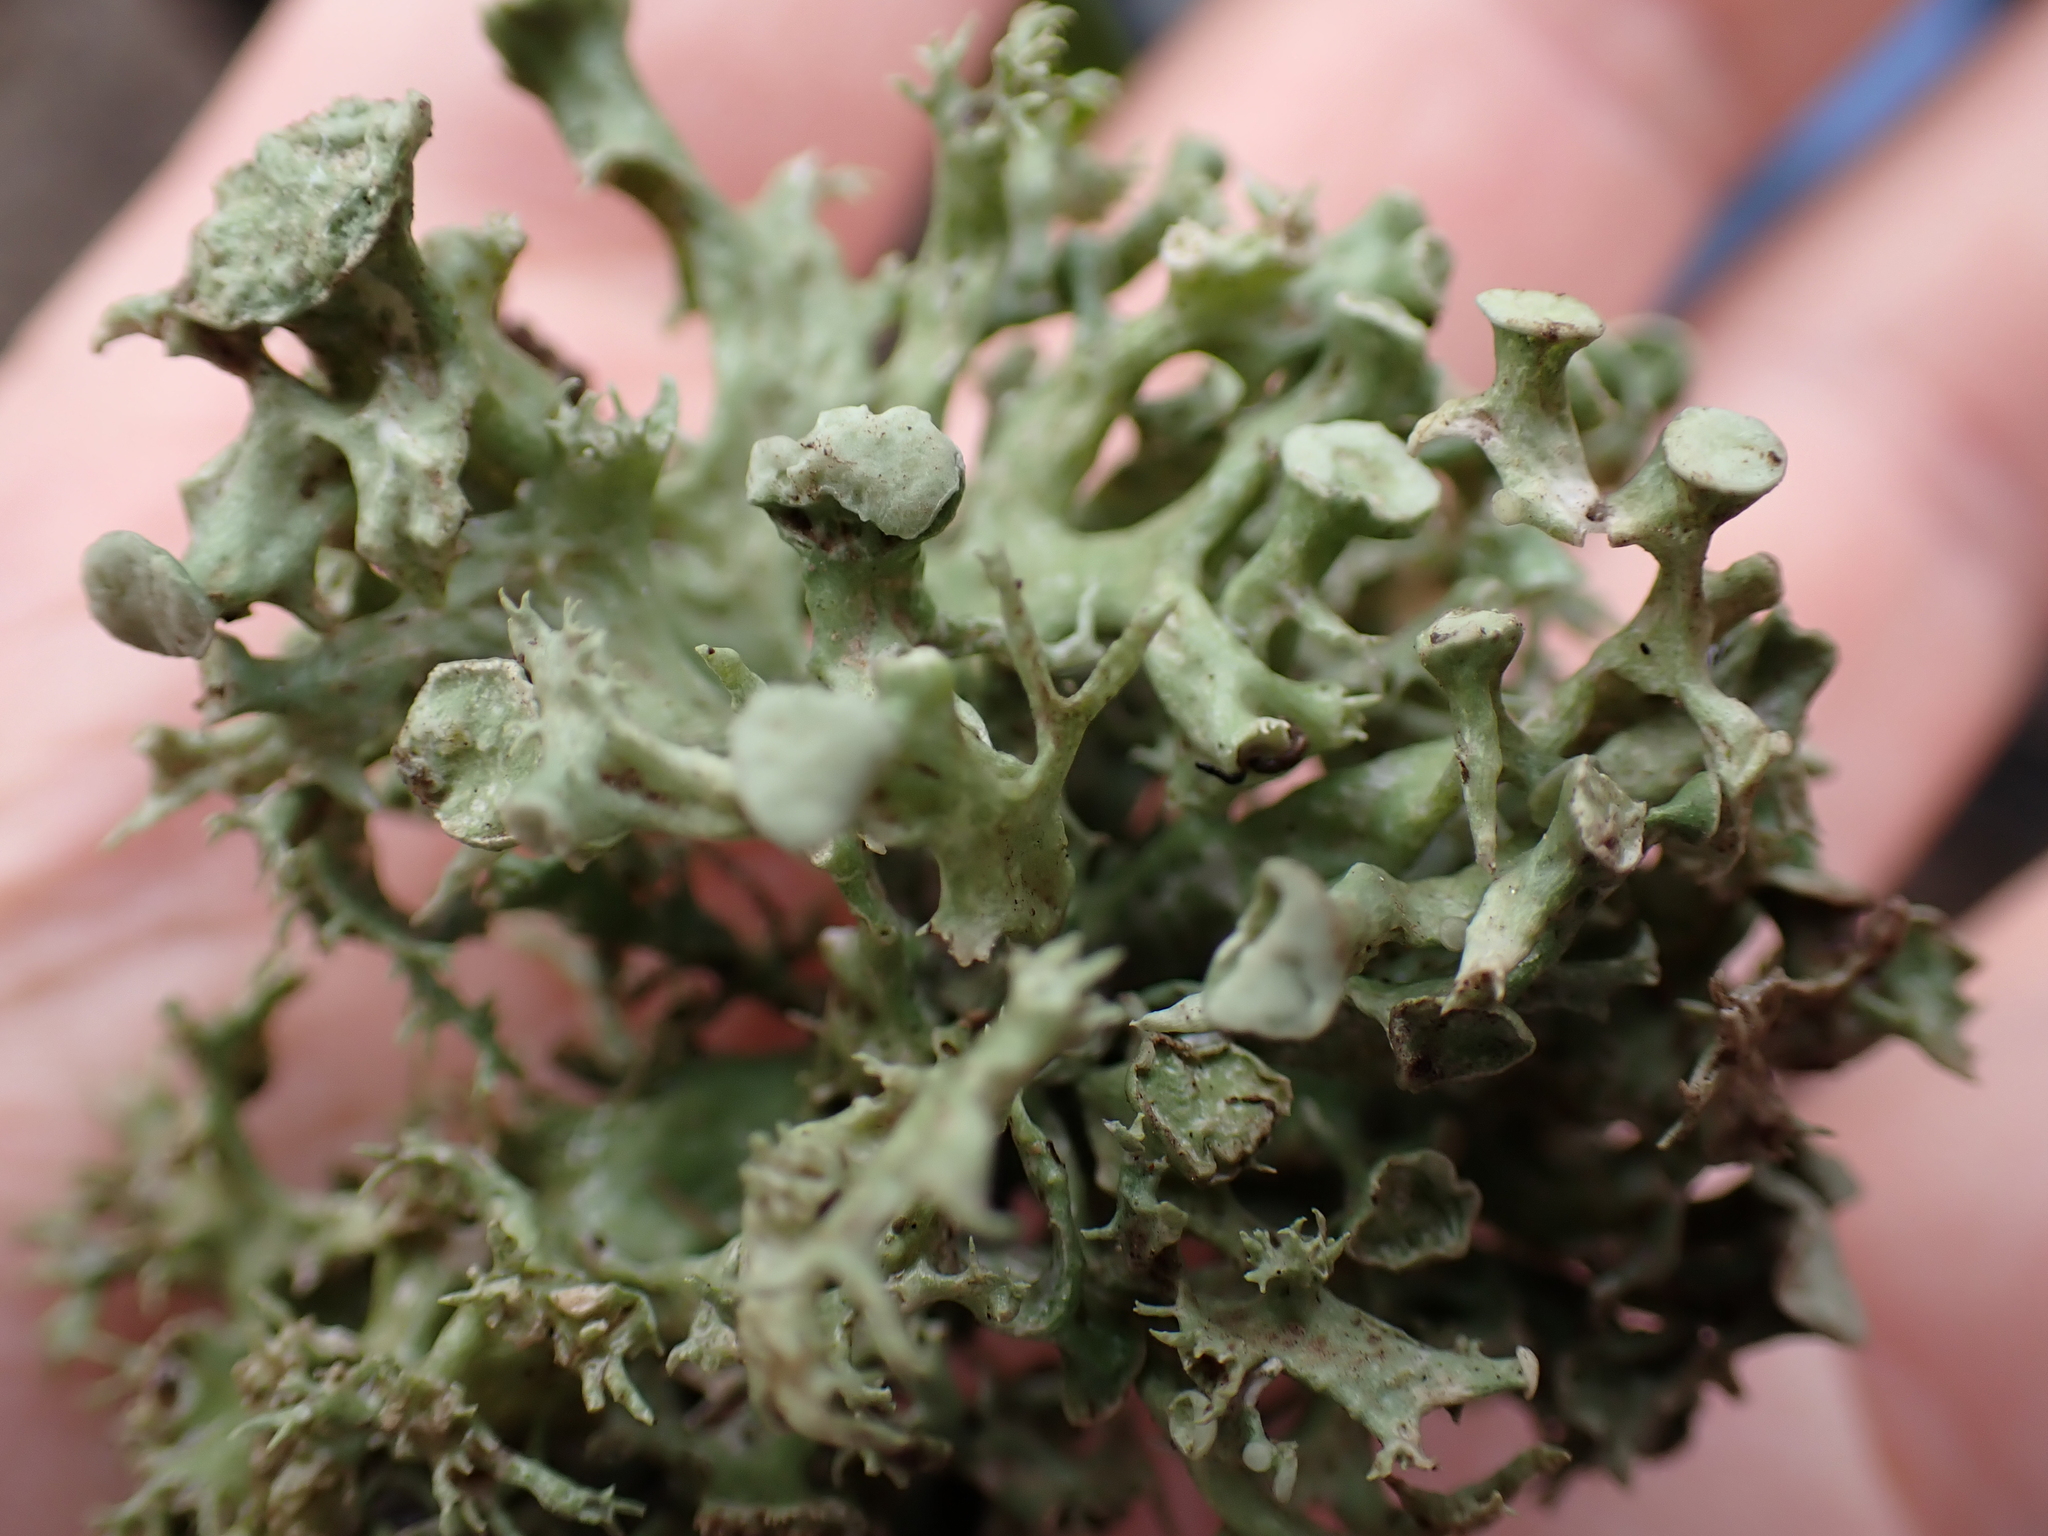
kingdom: Fungi
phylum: Ascomycota
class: Lecanoromycetes
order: Lecanorales
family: Ramalinaceae
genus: Ramalina
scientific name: Ramalina fastigiata
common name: Dotted ribbon lichen
